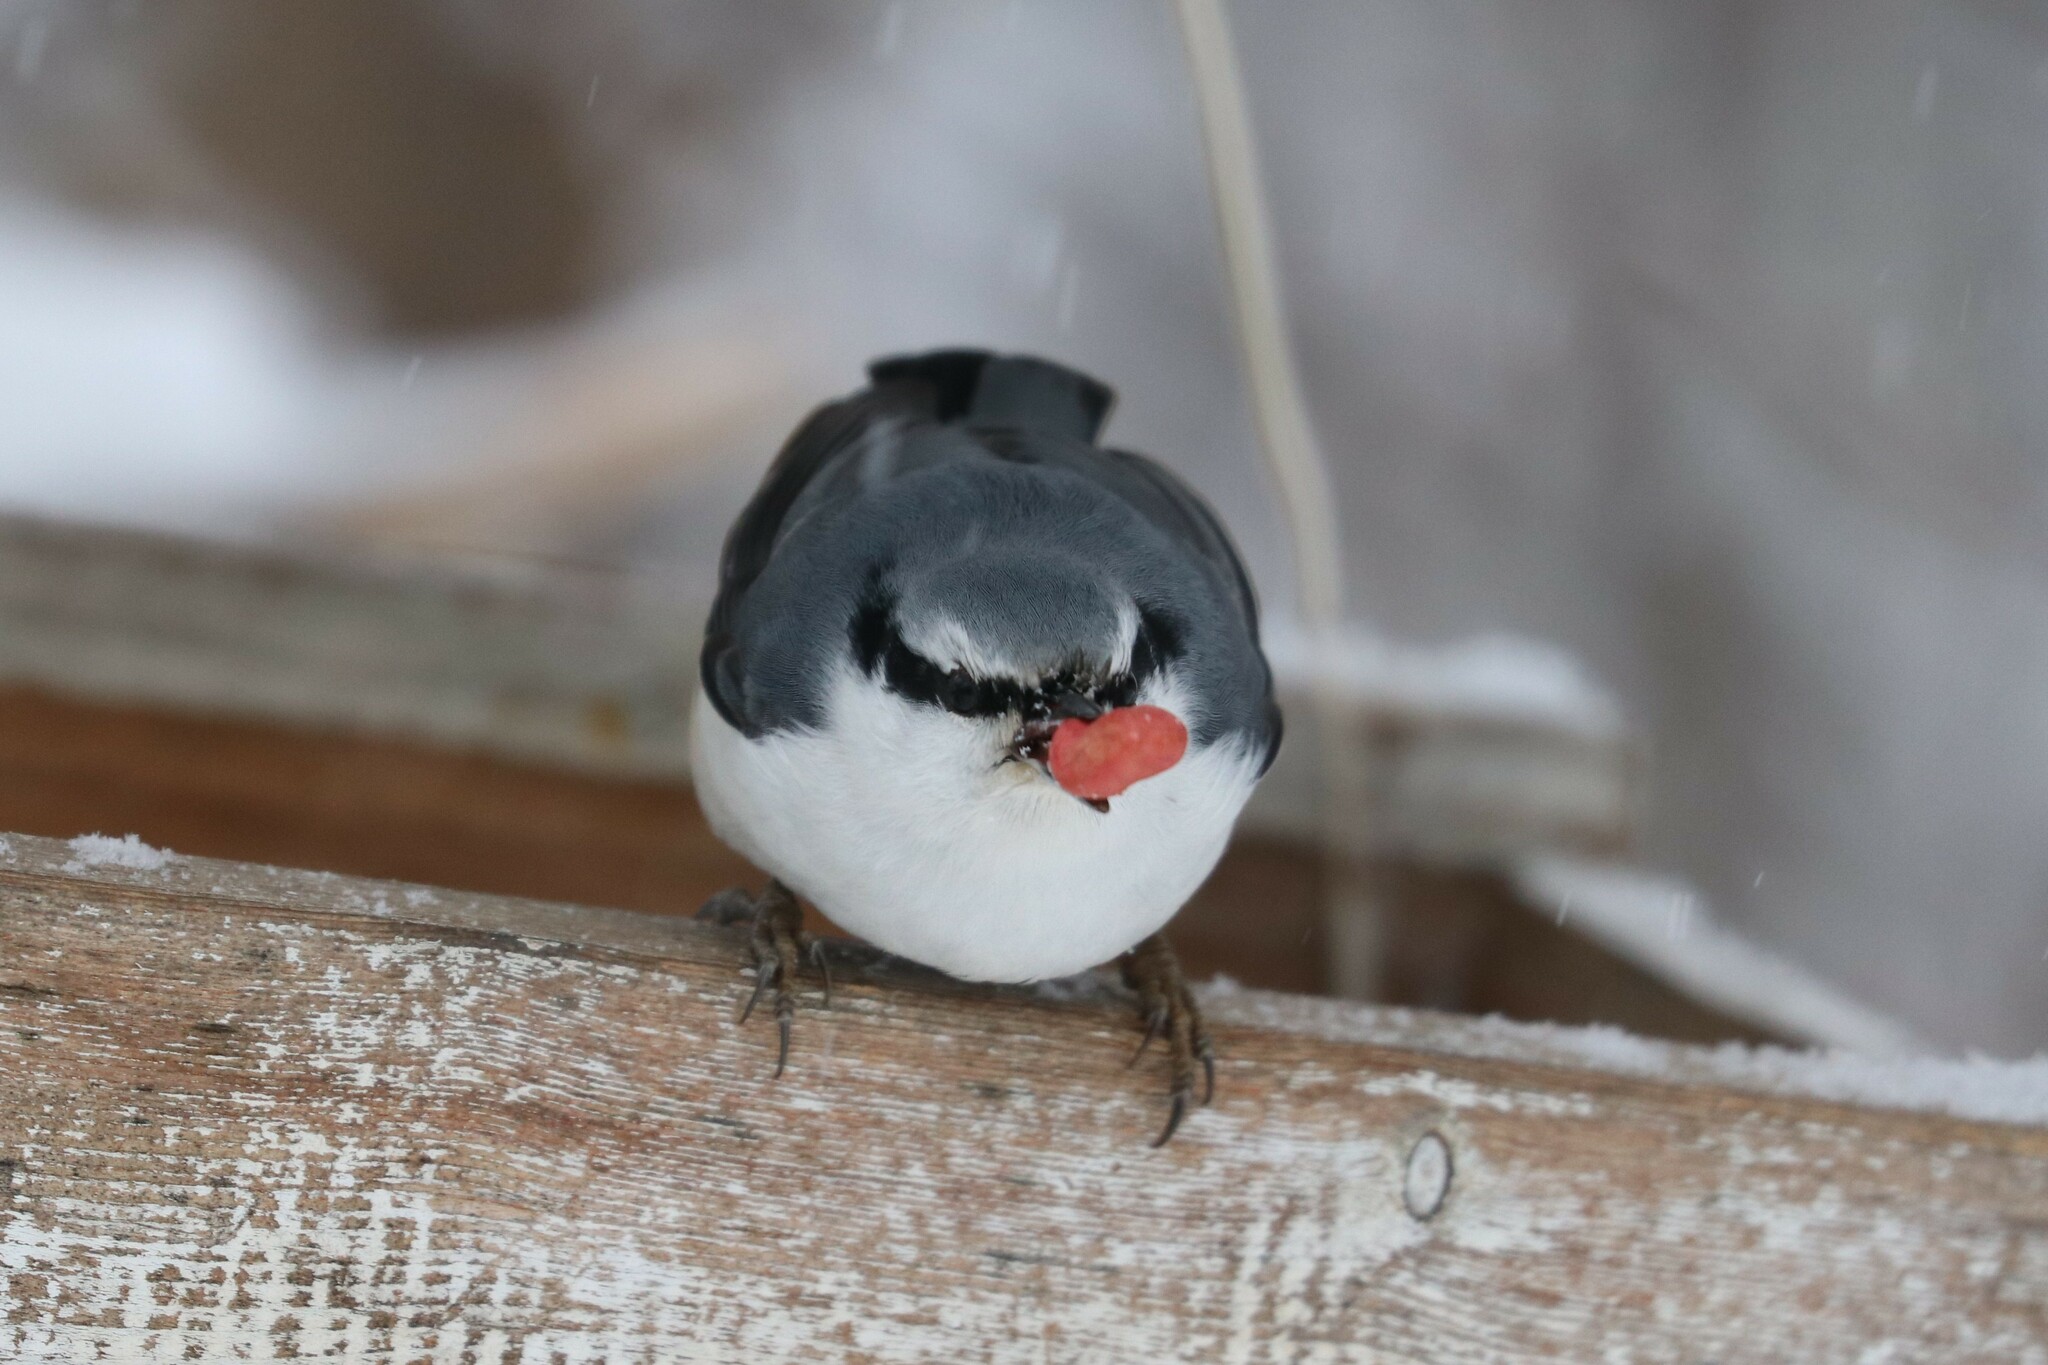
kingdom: Animalia
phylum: Chordata
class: Aves
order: Passeriformes
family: Sittidae
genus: Sitta
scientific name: Sitta europaea
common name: Eurasian nuthatch
